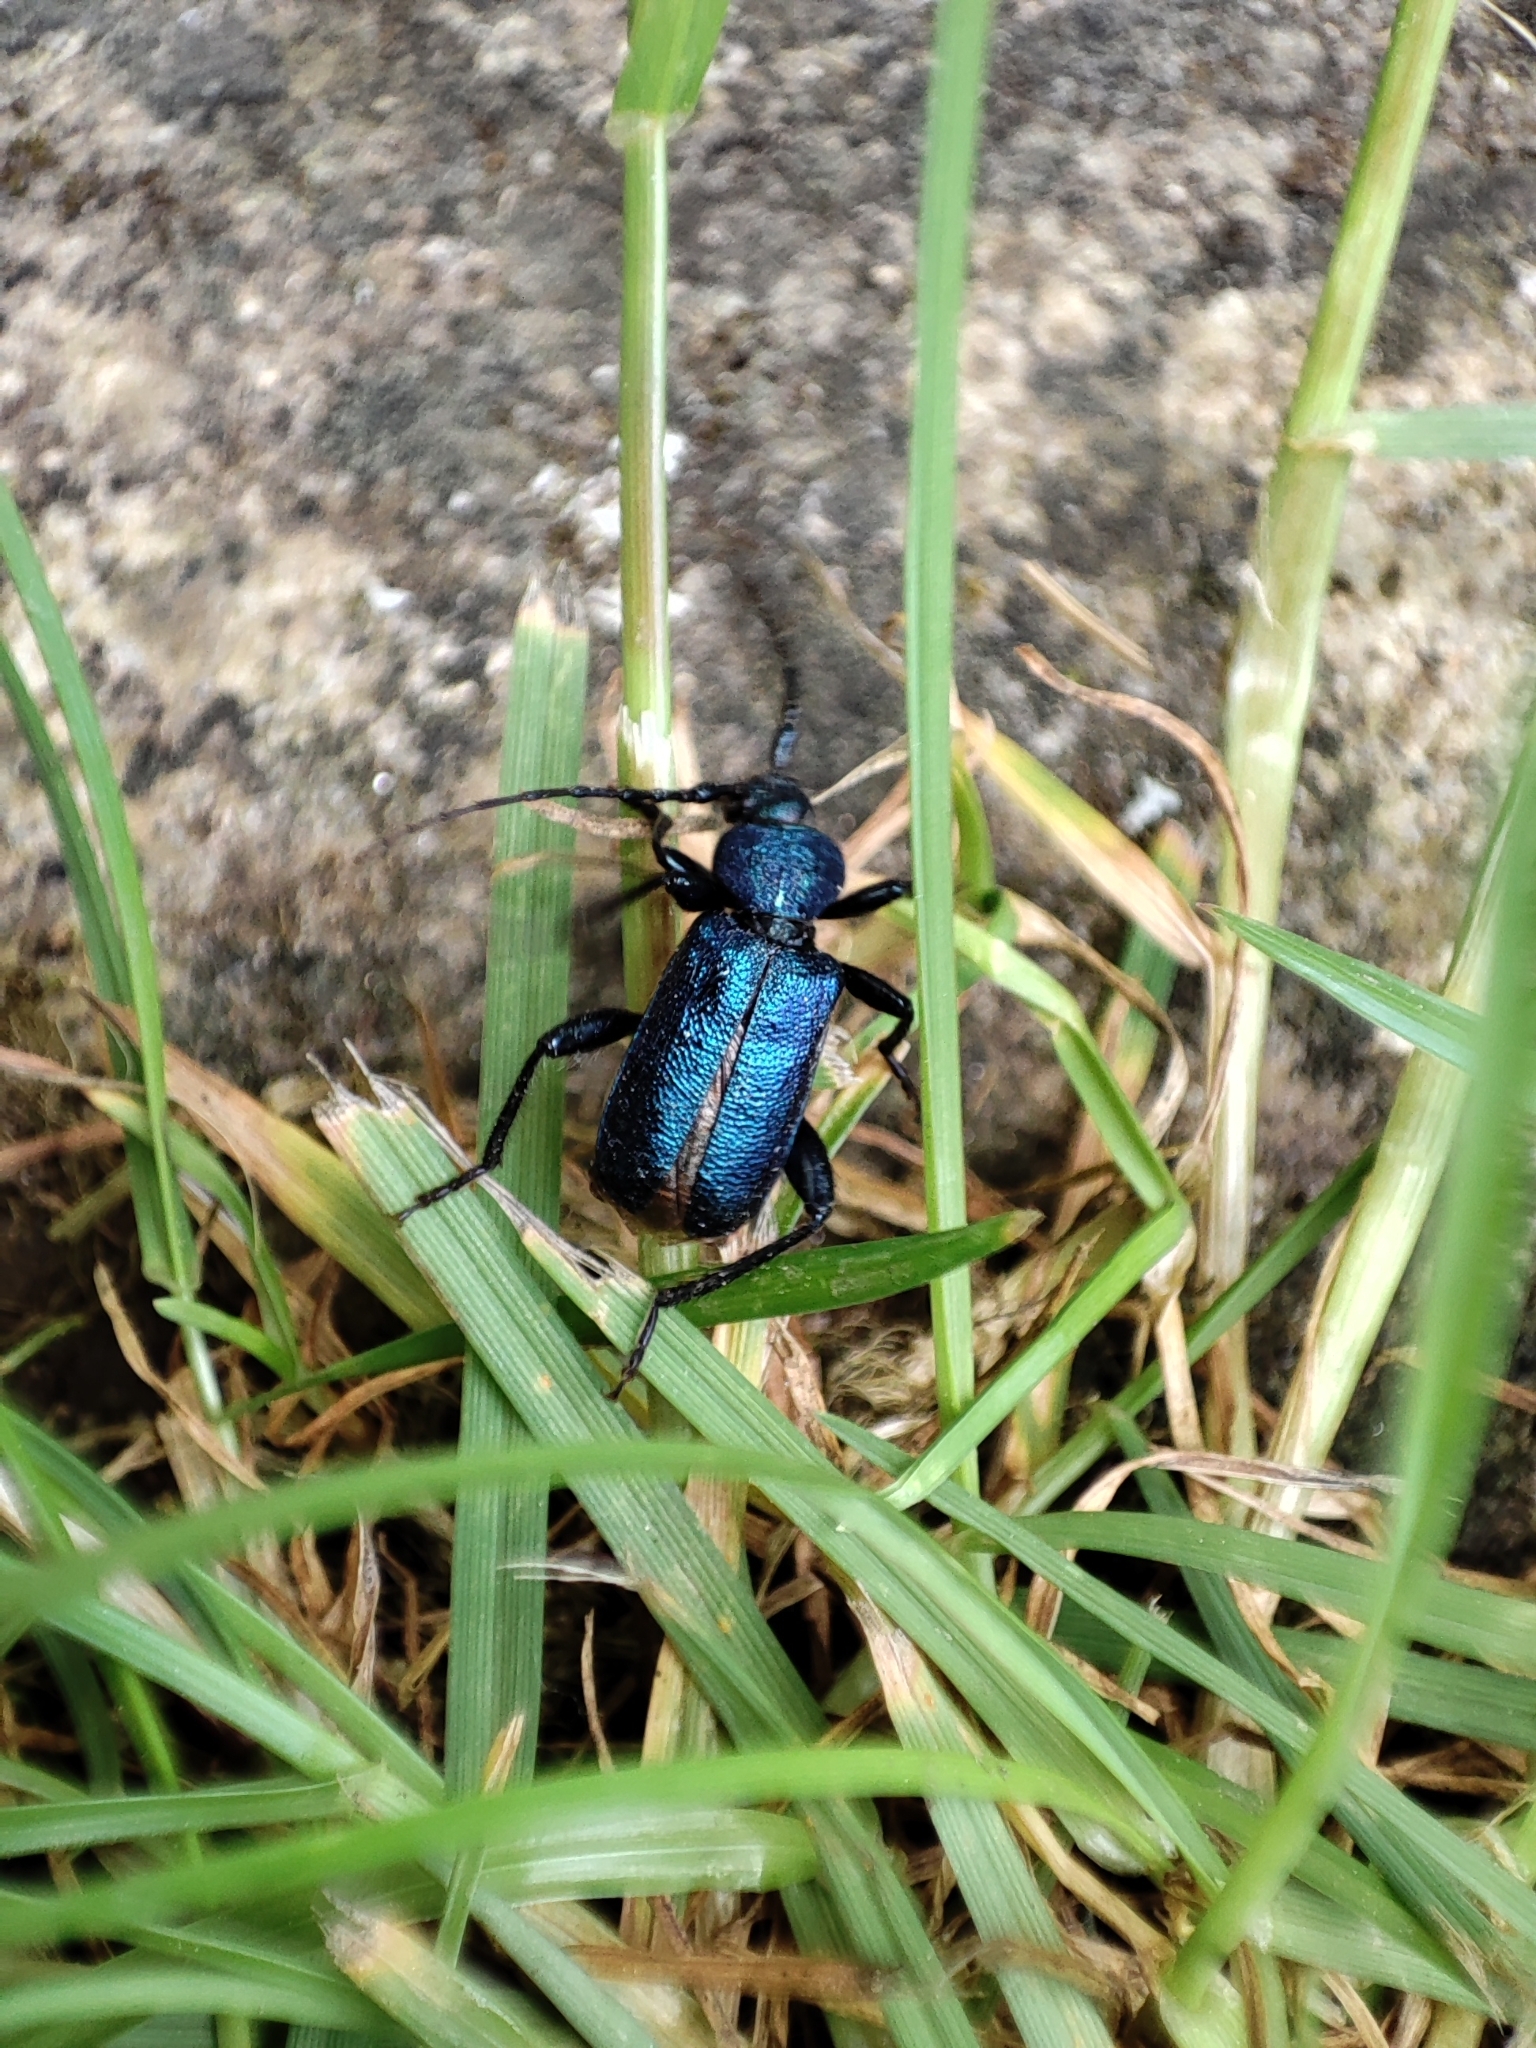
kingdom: Animalia
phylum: Arthropoda
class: Insecta
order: Coleoptera
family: Cerambycidae
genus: Callidium
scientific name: Callidium violaceum
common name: Violet tanbark beetle
